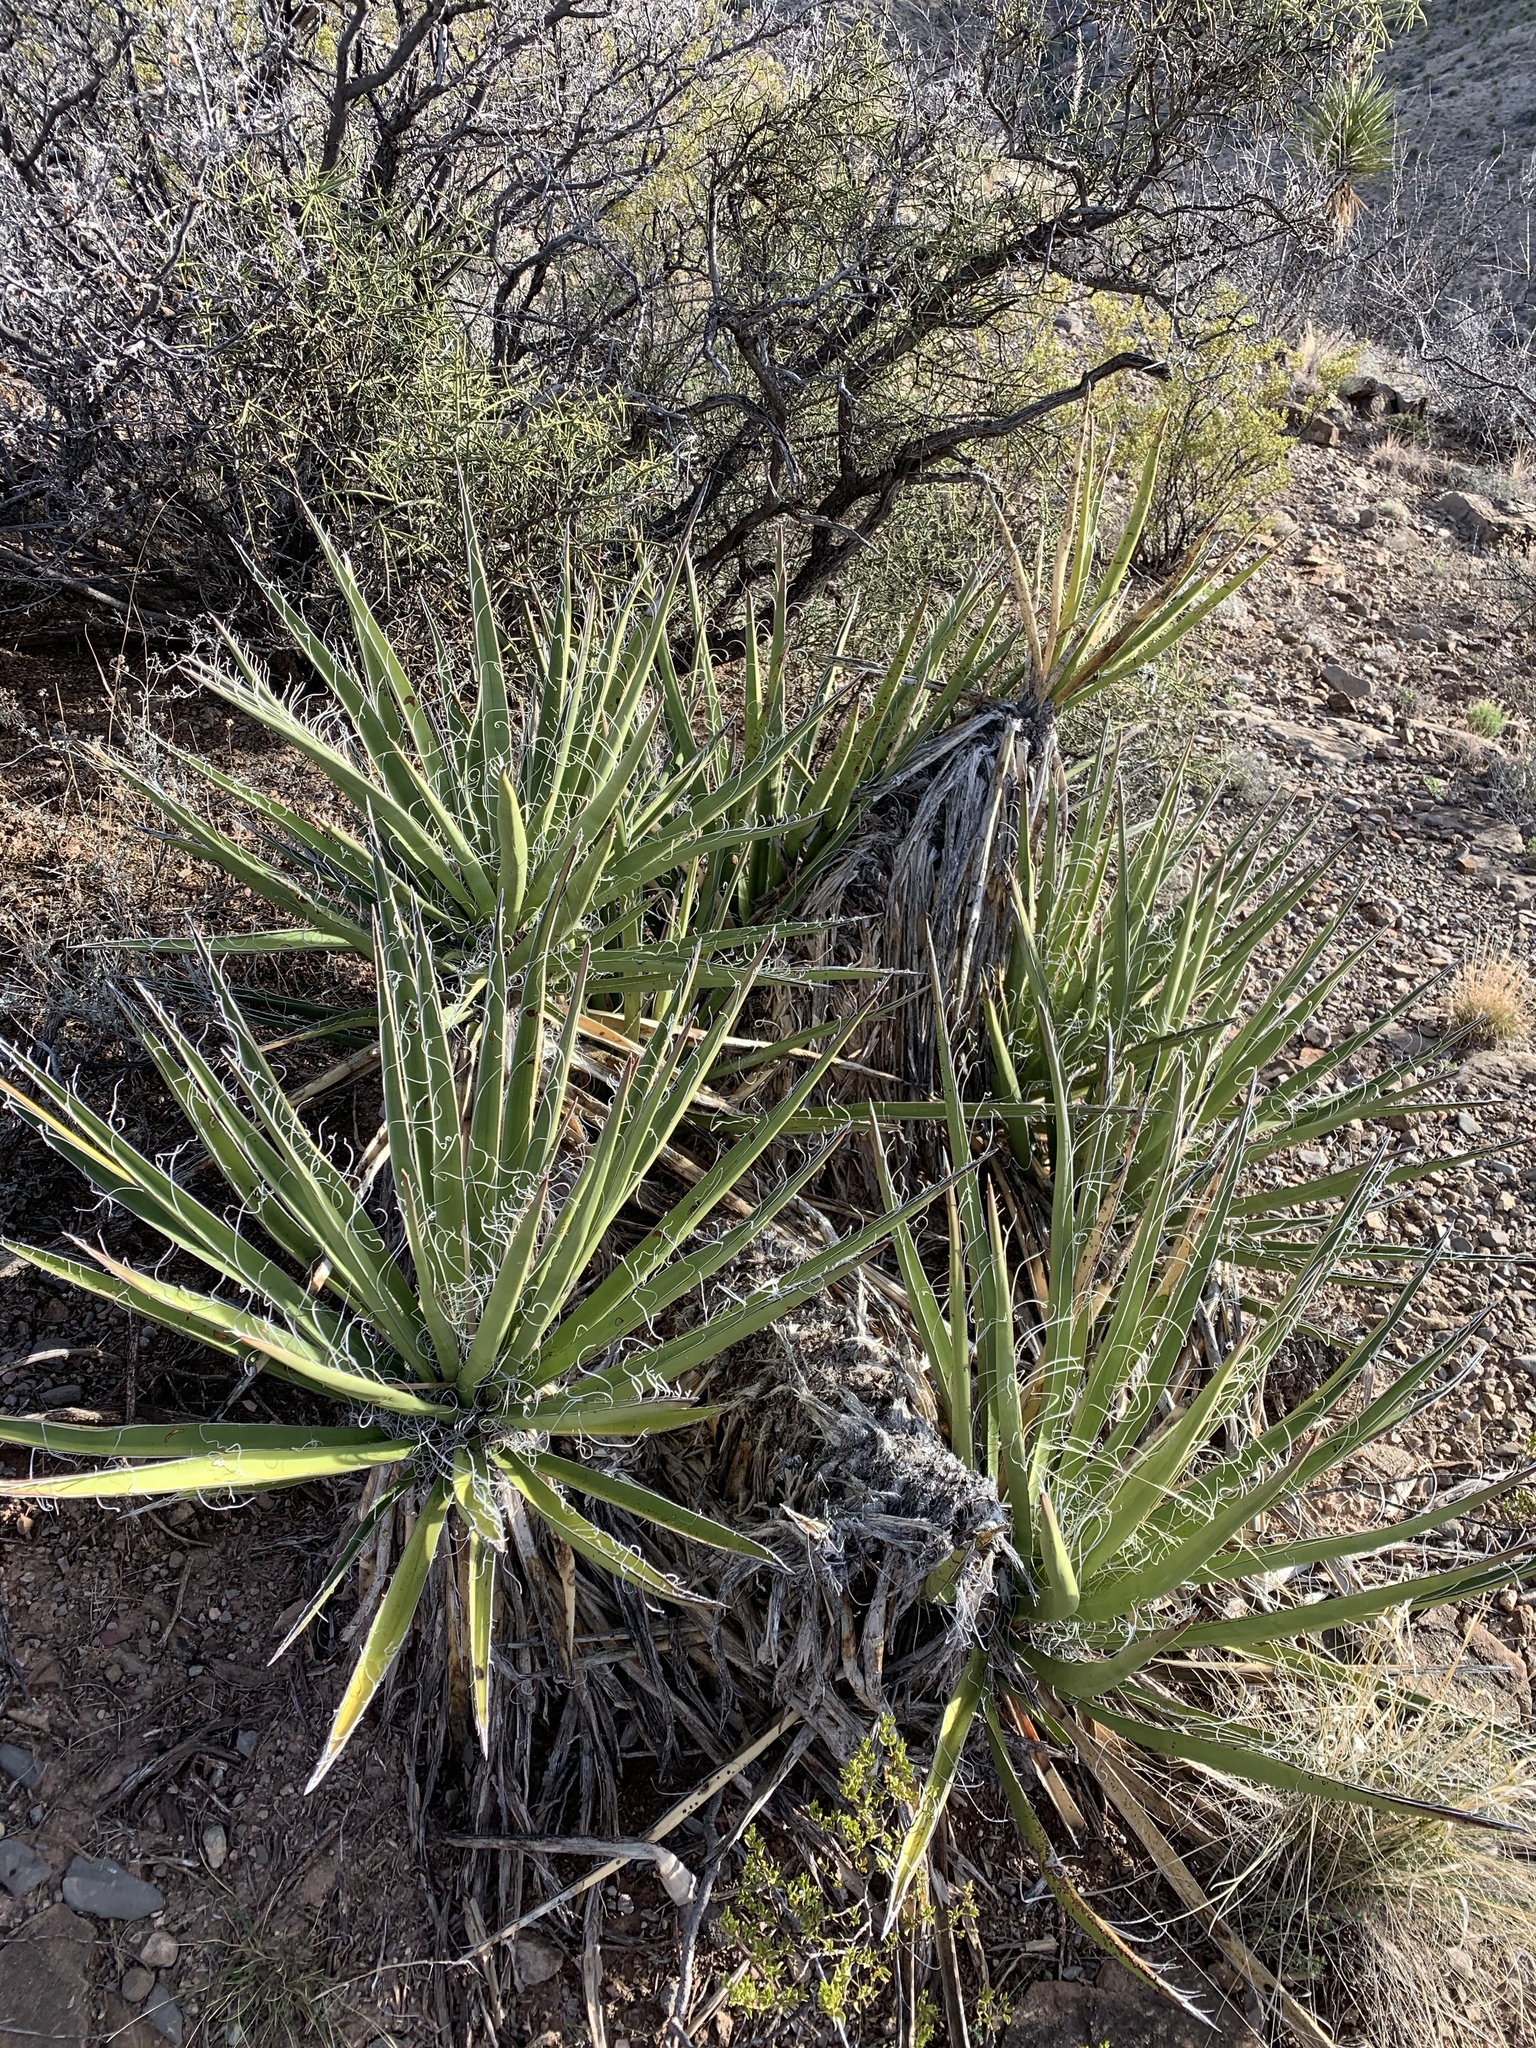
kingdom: Plantae
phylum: Tracheophyta
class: Liliopsida
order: Asparagales
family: Asparagaceae
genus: Yucca
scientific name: Yucca baccata
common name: Banana yucca
